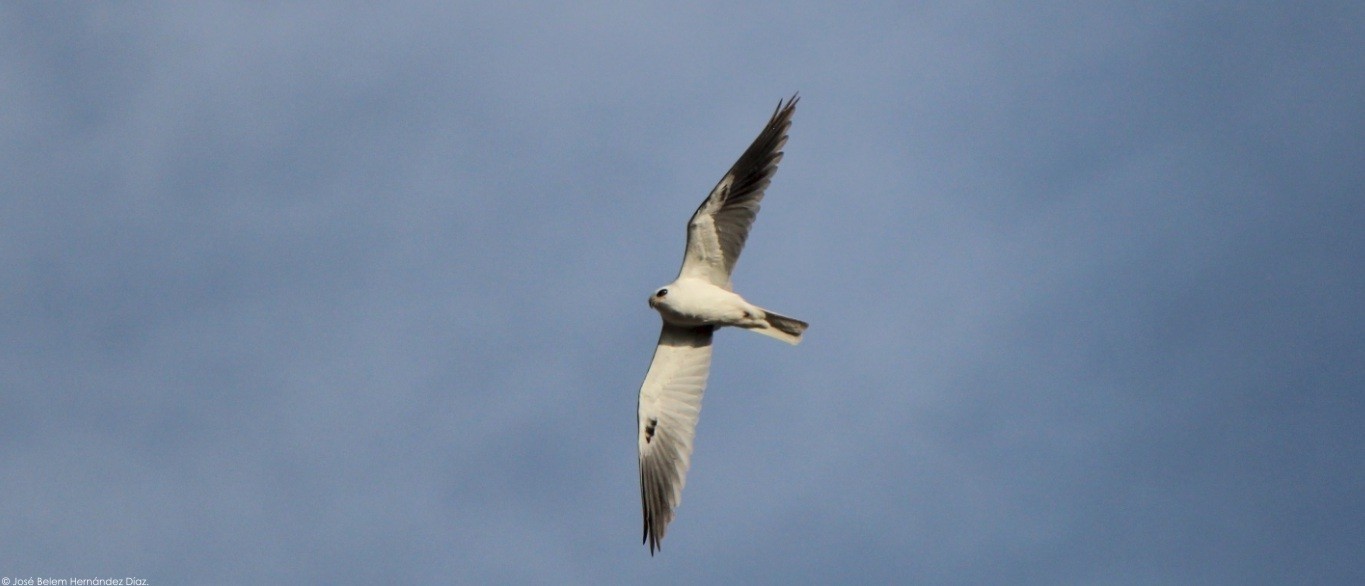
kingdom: Animalia
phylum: Chordata
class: Aves
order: Accipitriformes
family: Accipitridae
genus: Elanus
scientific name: Elanus leucurus
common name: White-tailed kite
